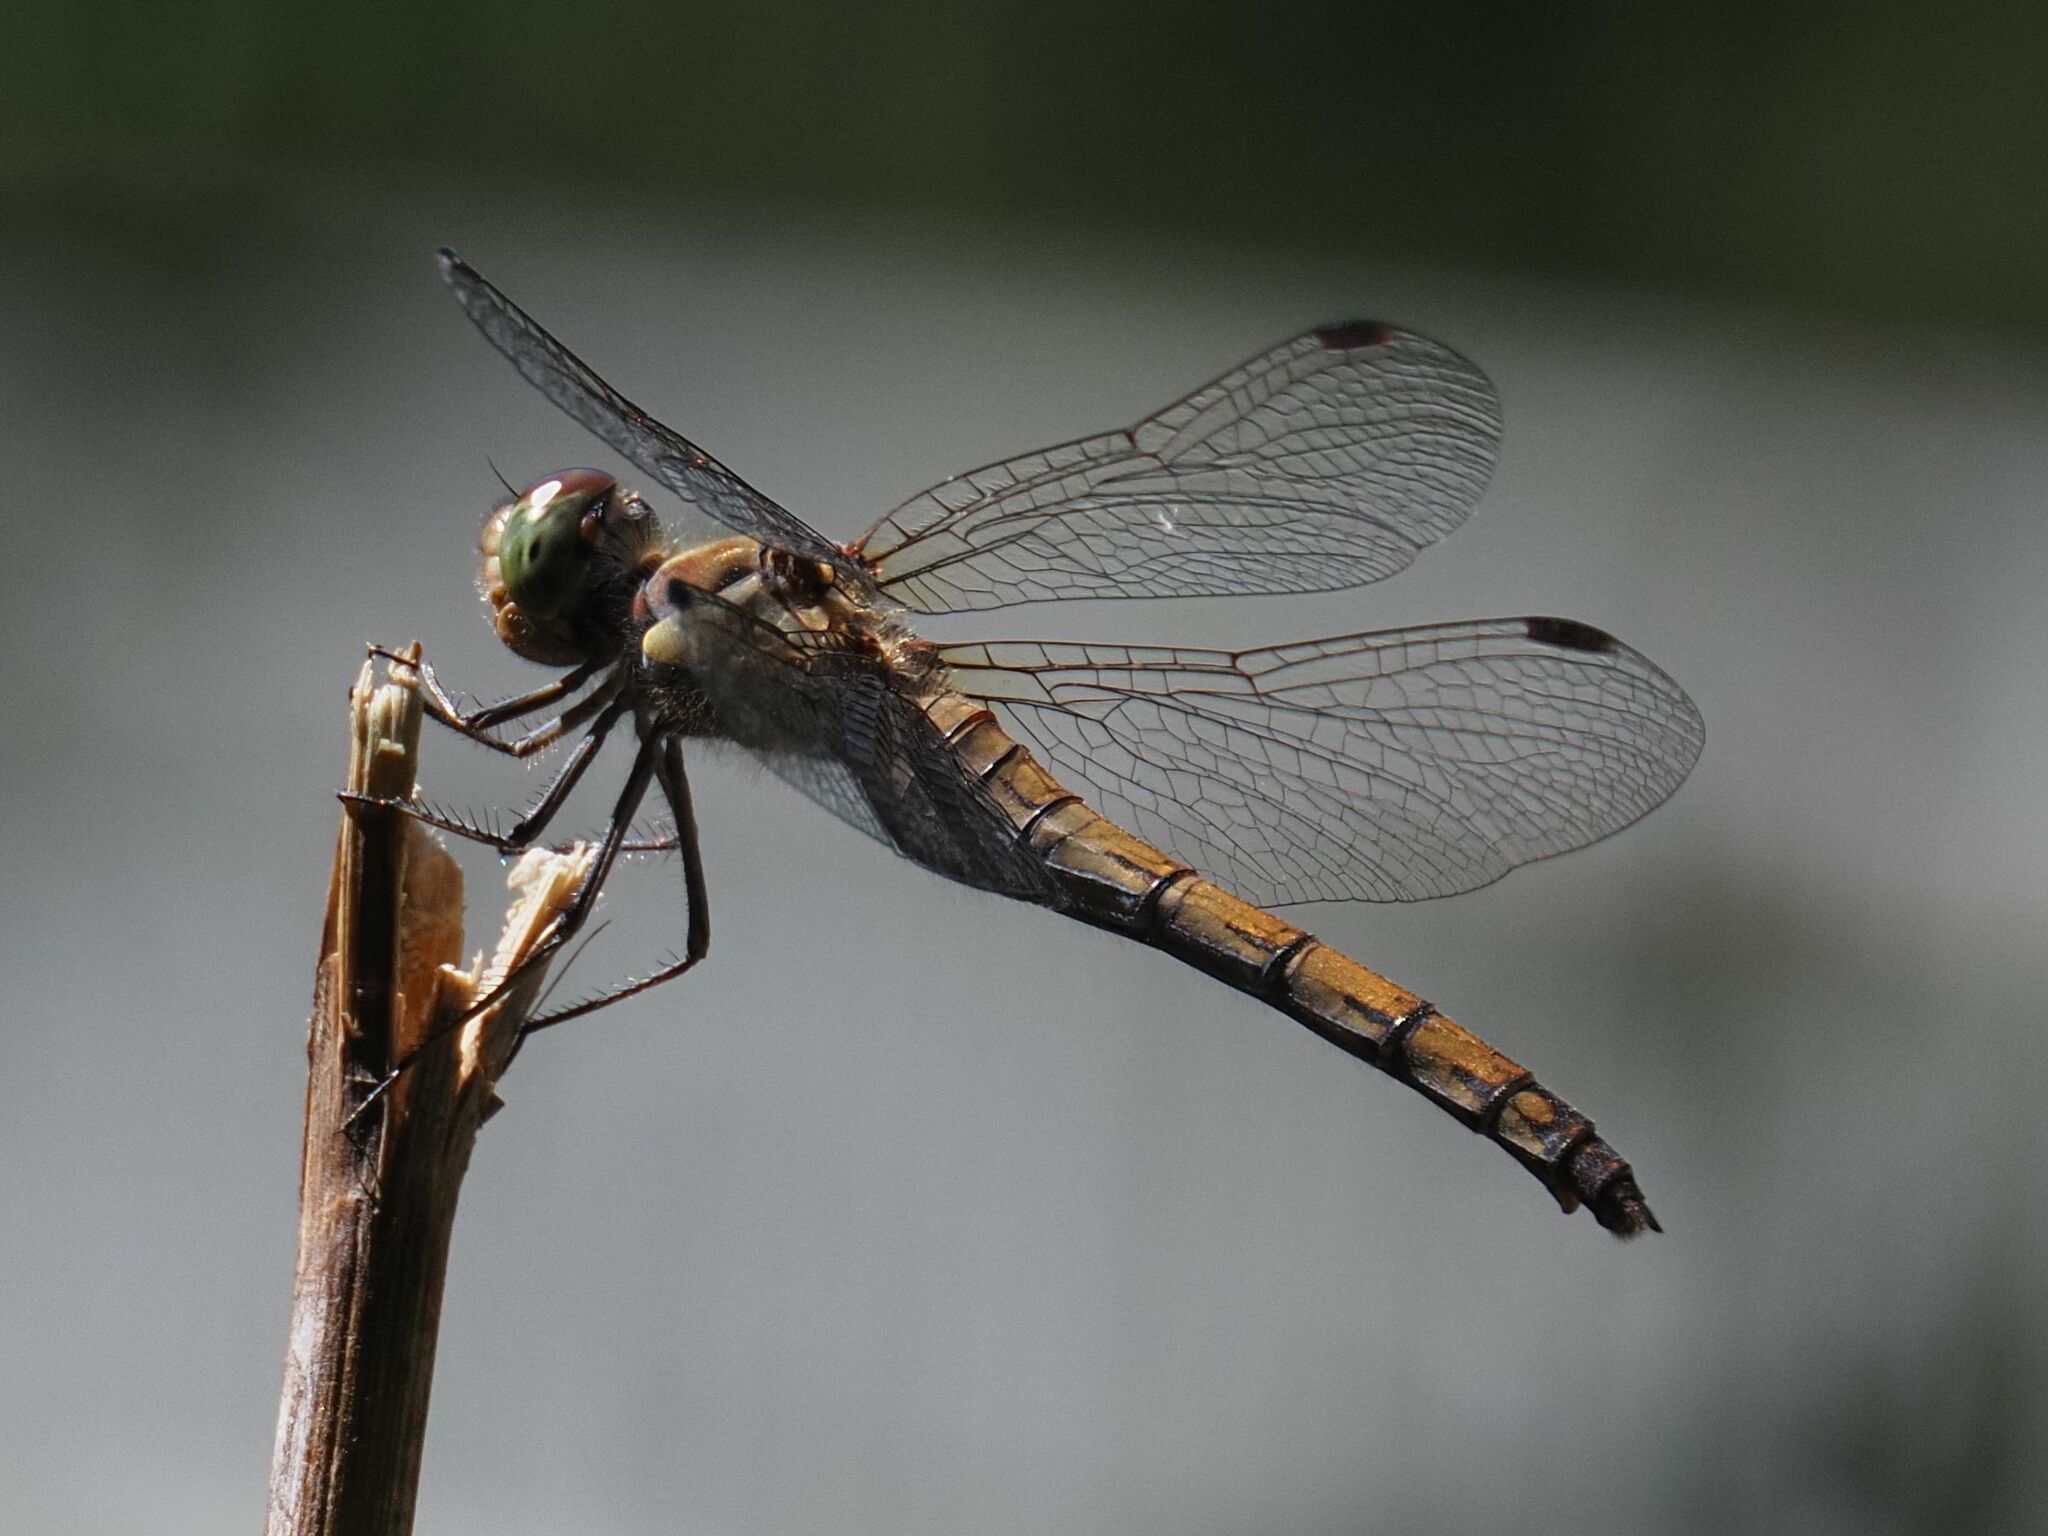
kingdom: Animalia
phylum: Arthropoda
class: Insecta
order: Odonata
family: Libellulidae
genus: Sympetrum
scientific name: Sympetrum striolatum
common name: Common darter
